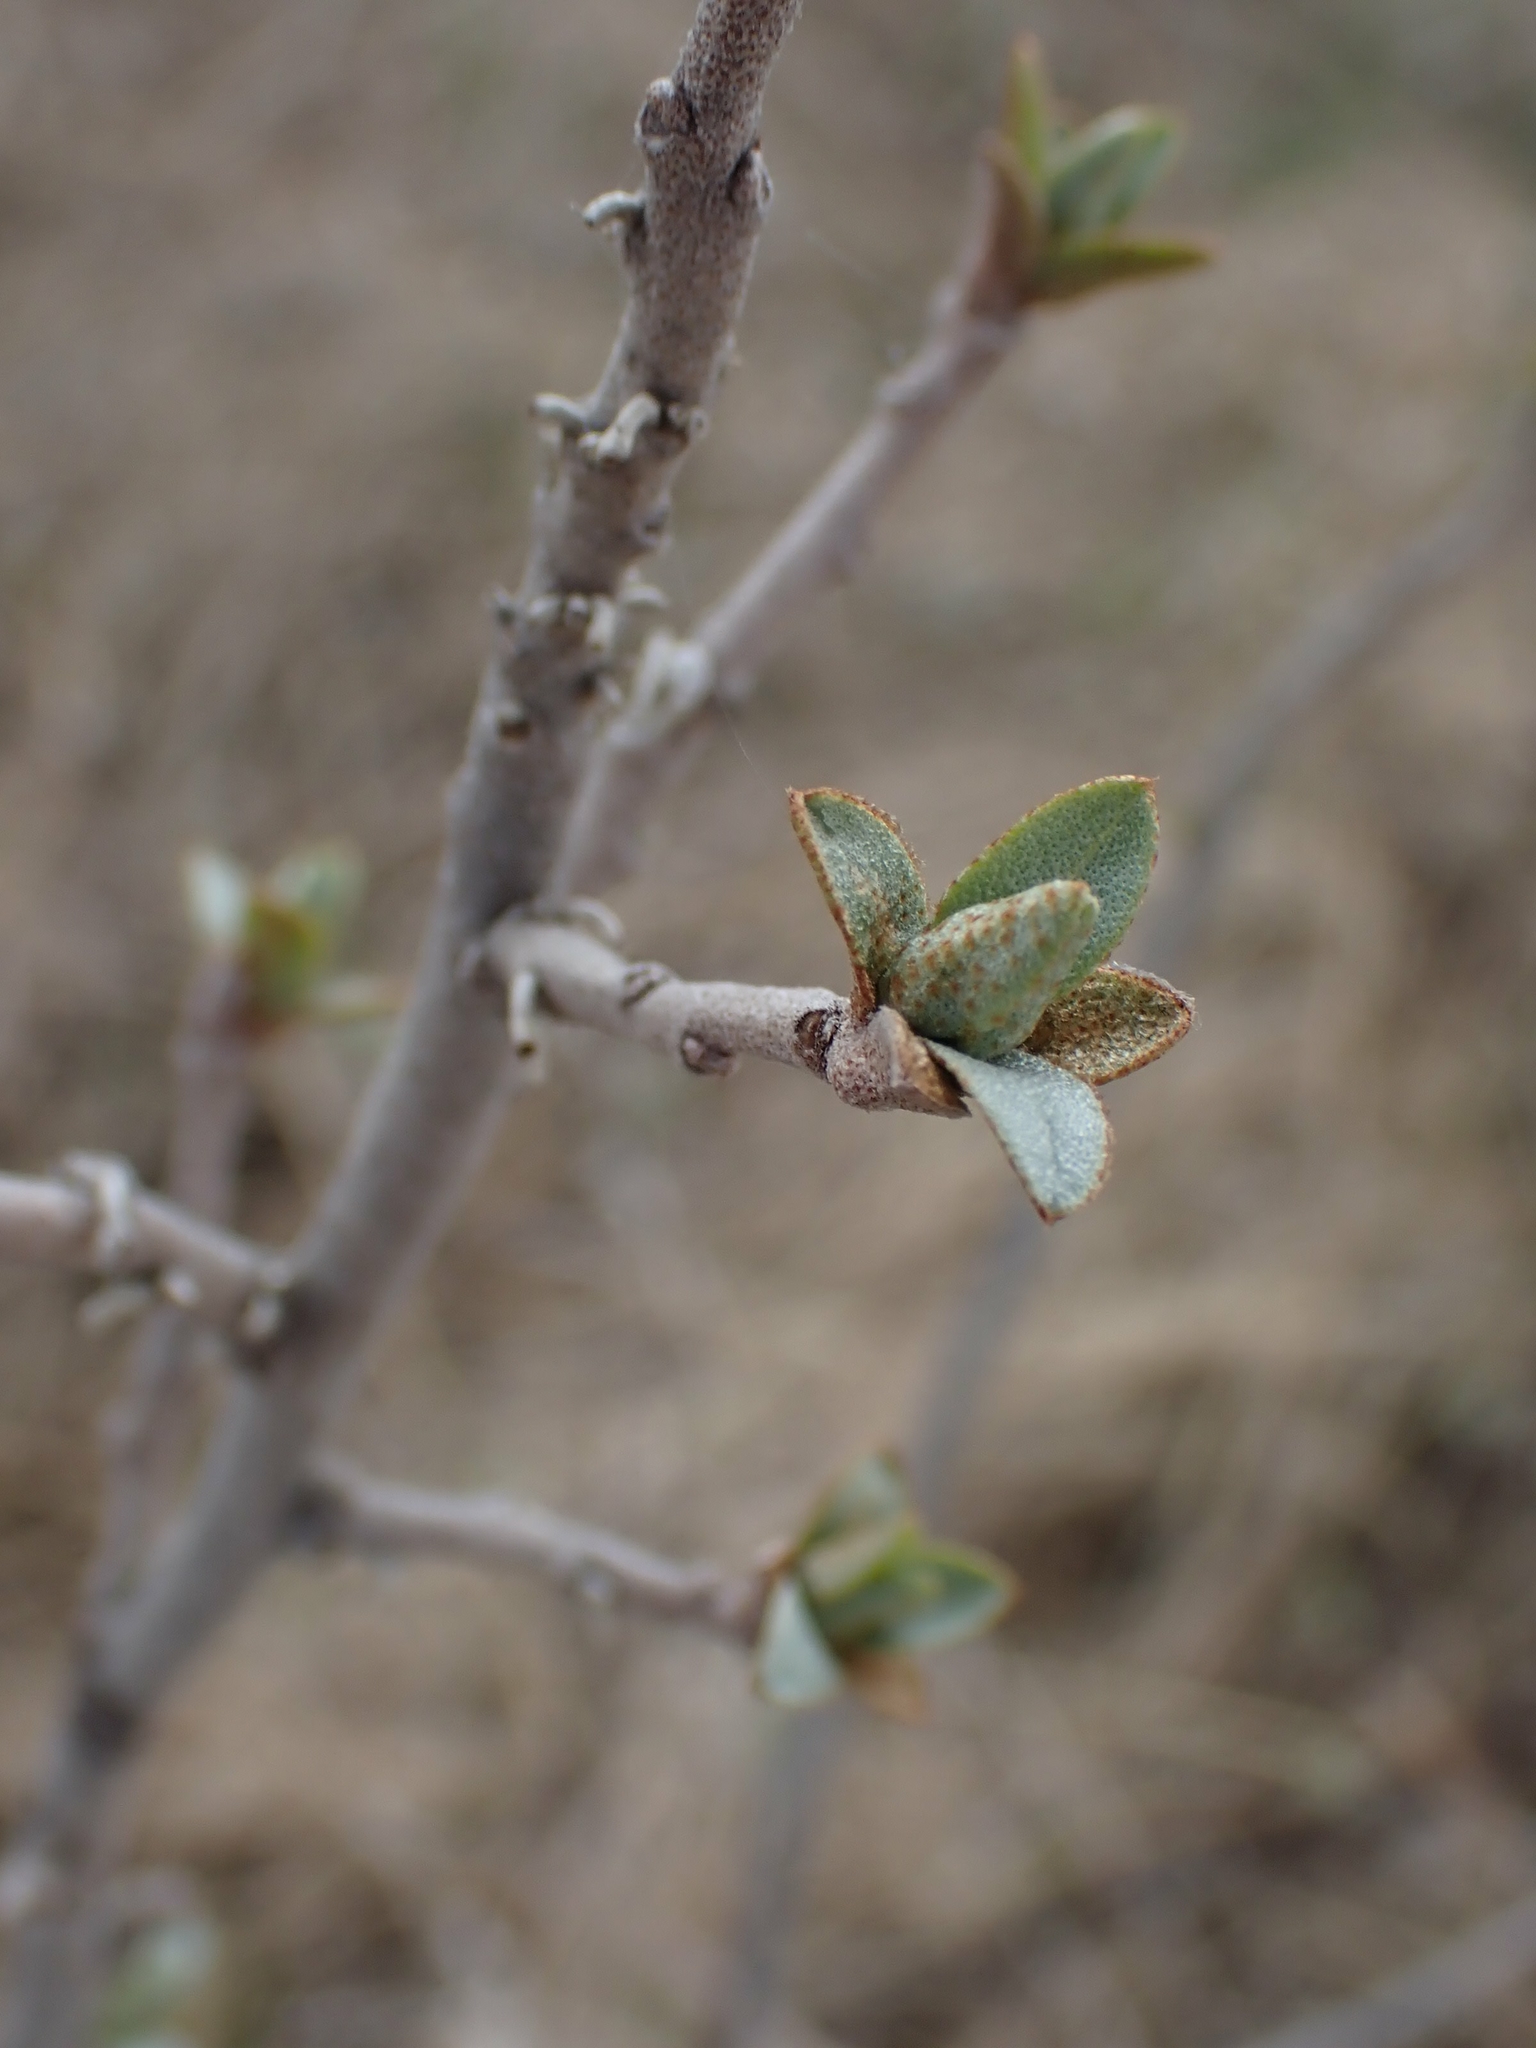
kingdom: Plantae
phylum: Tracheophyta
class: Magnoliopsida
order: Rosales
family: Elaeagnaceae
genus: Elaeagnus
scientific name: Elaeagnus commutata
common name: Silverberry
